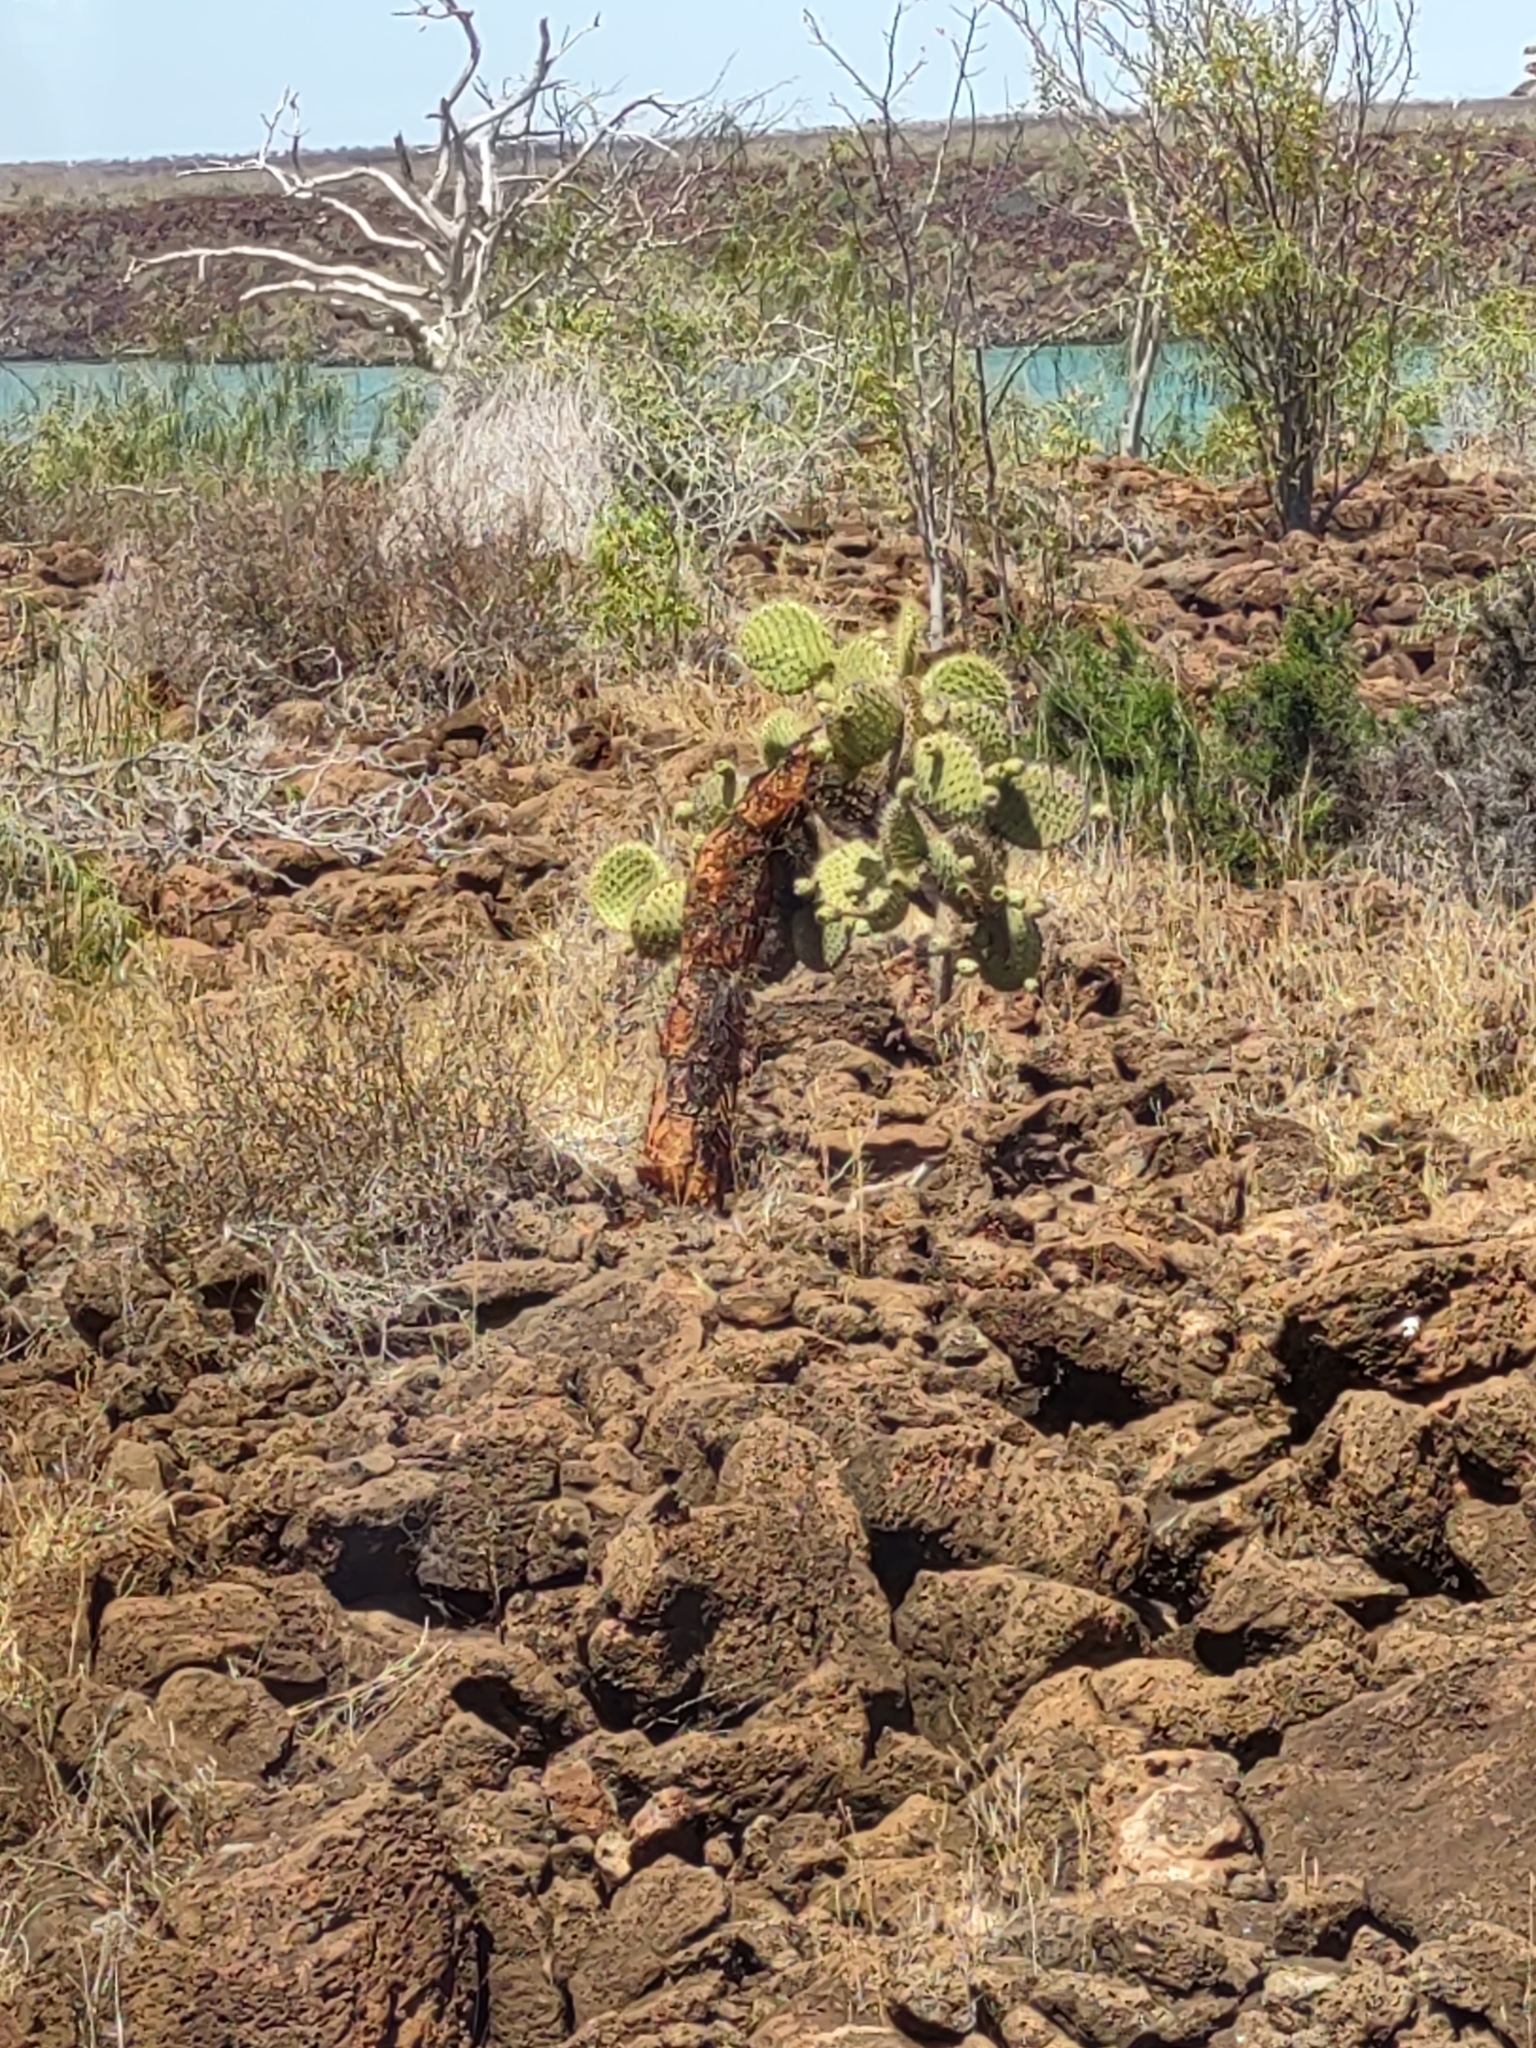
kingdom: Plantae
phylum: Tracheophyta
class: Magnoliopsida
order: Caryophyllales
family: Cactaceae
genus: Opuntia
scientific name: Opuntia galapageia
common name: Galápagos prickly pear
